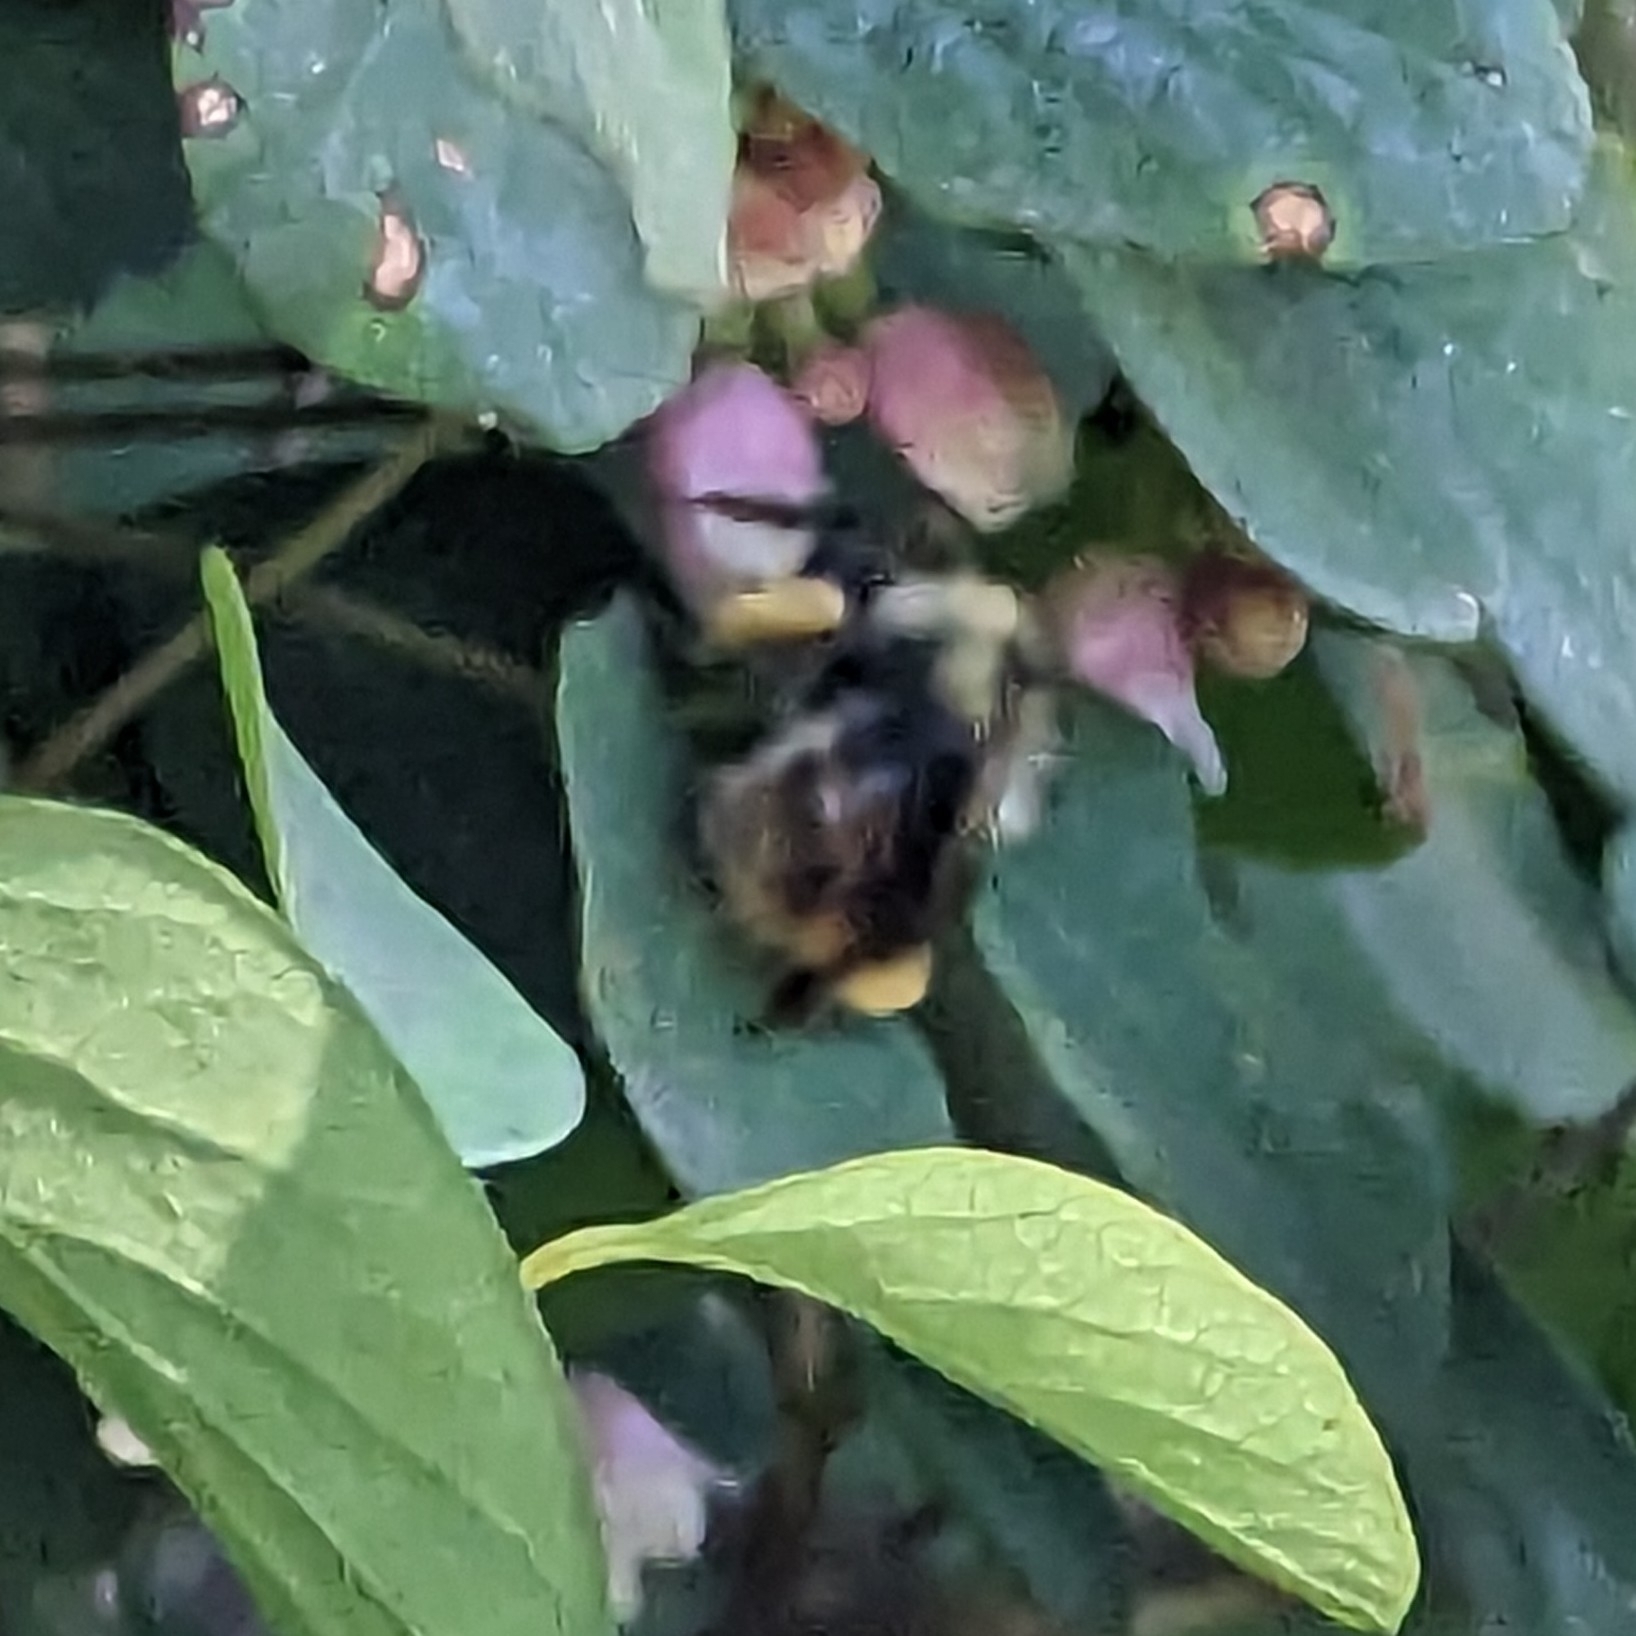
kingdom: Animalia
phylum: Arthropoda
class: Insecta
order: Hymenoptera
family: Apidae
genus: Bombus
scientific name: Bombus mixtus
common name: Fuzzy-horned bumble bee
